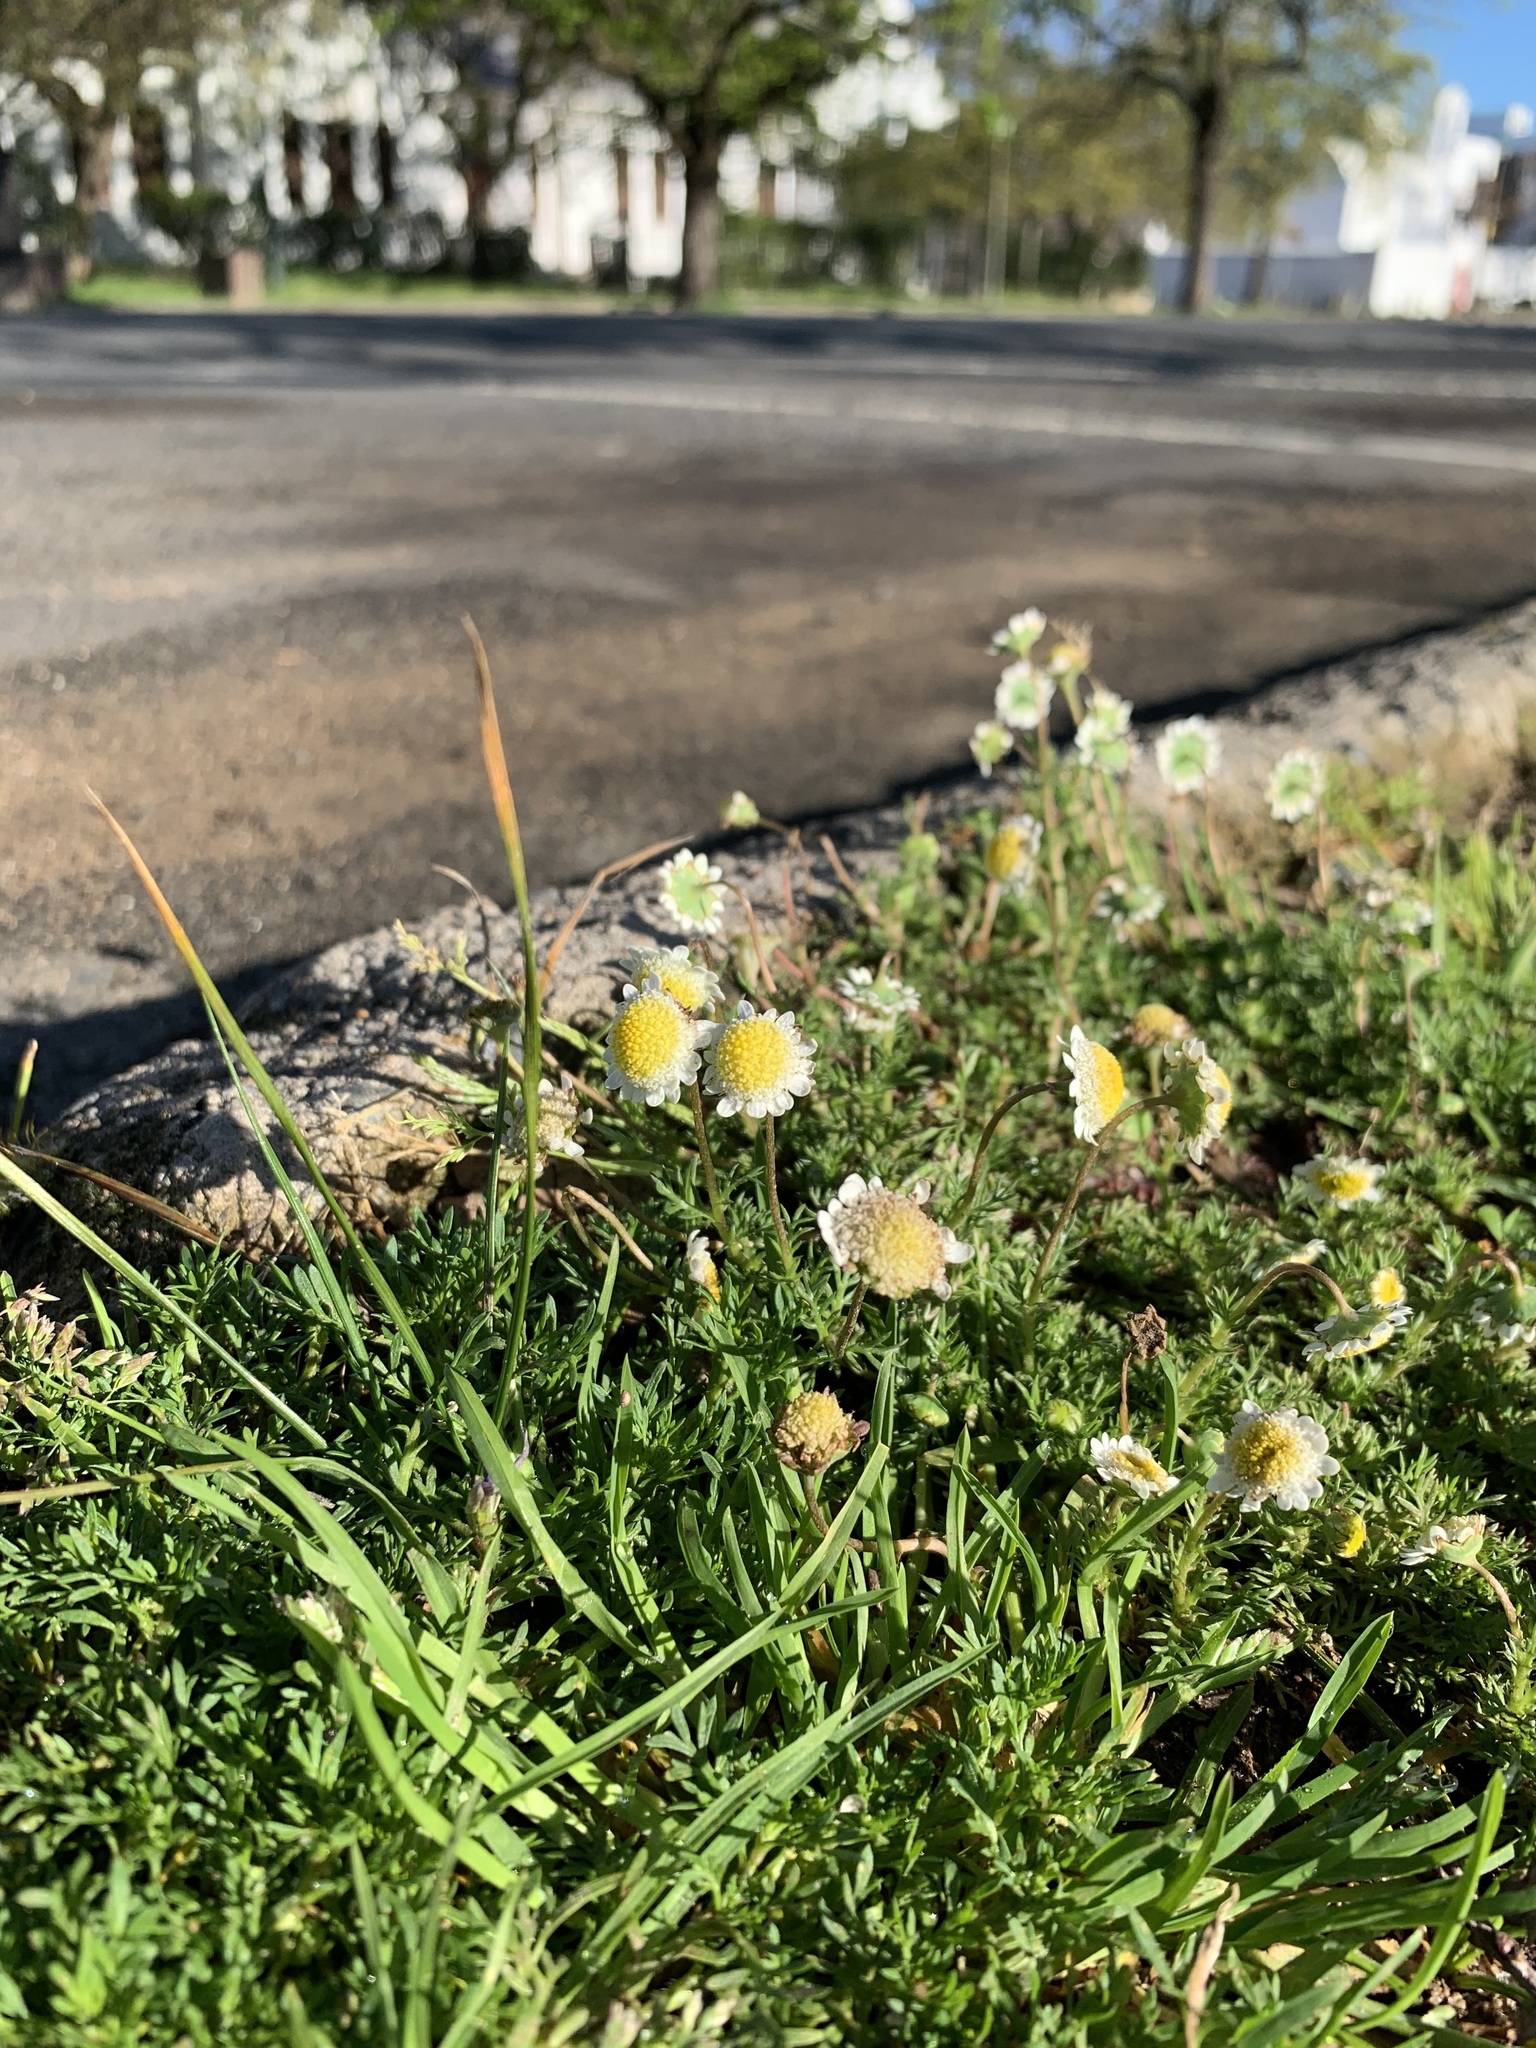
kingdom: Plantae
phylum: Tracheophyta
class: Magnoliopsida
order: Asterales
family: Asteraceae
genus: Cotula
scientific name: Cotula turbinata
